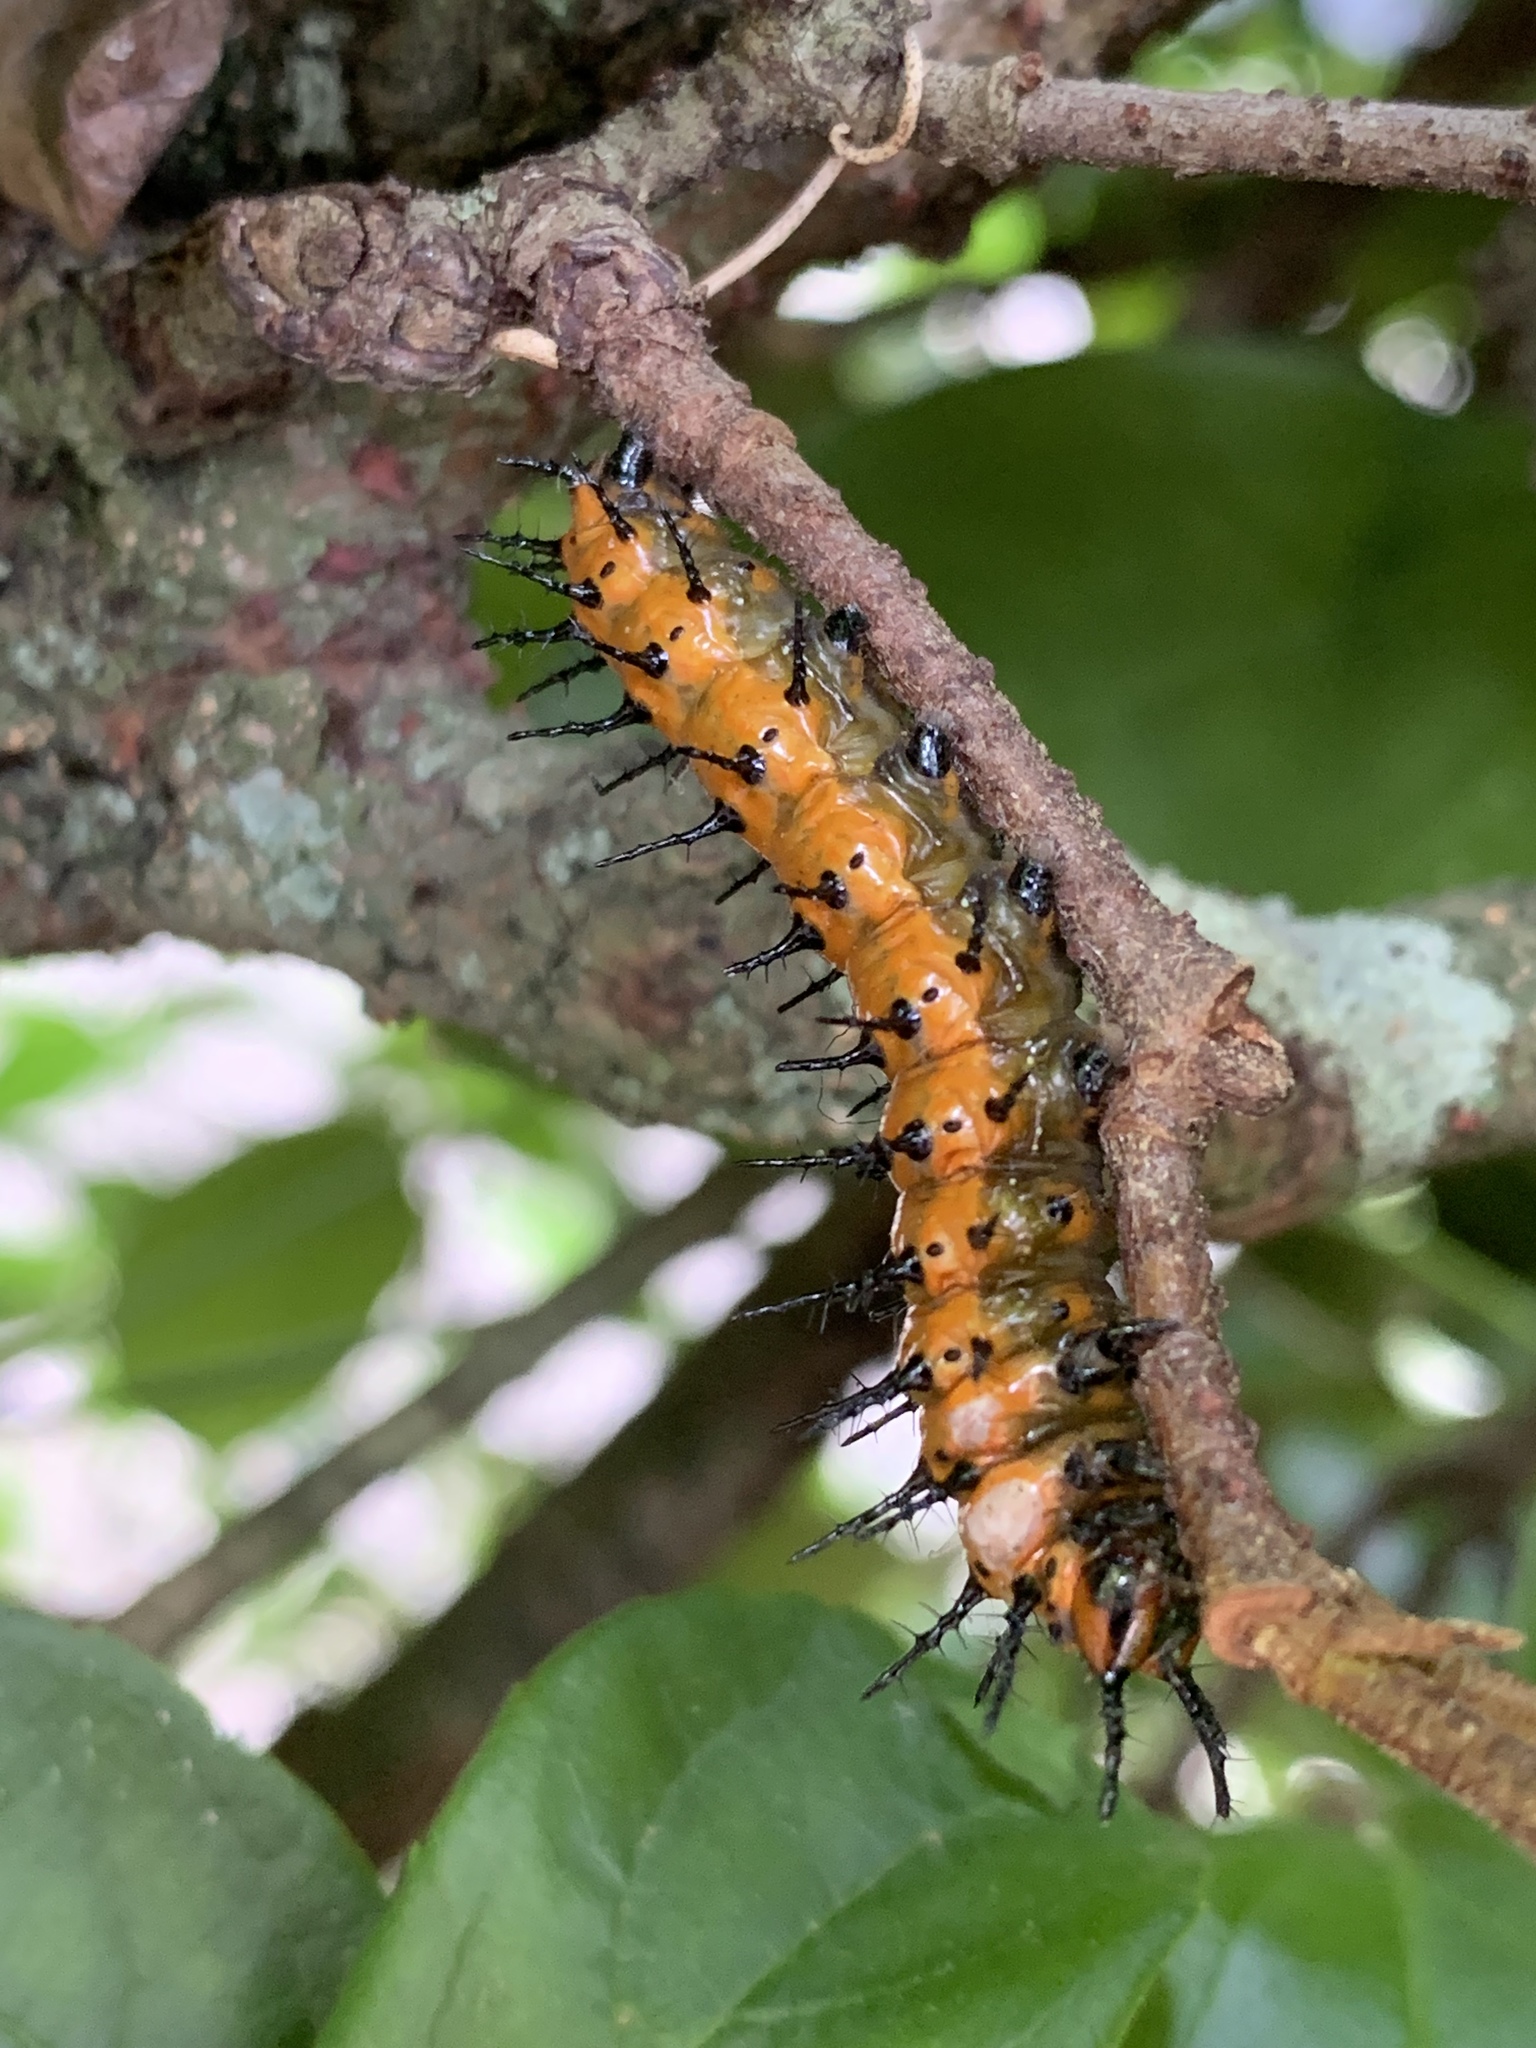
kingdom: Animalia
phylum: Arthropoda
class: Insecta
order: Lepidoptera
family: Nymphalidae
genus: Dione
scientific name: Dione vanillae
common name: Gulf fritillary
